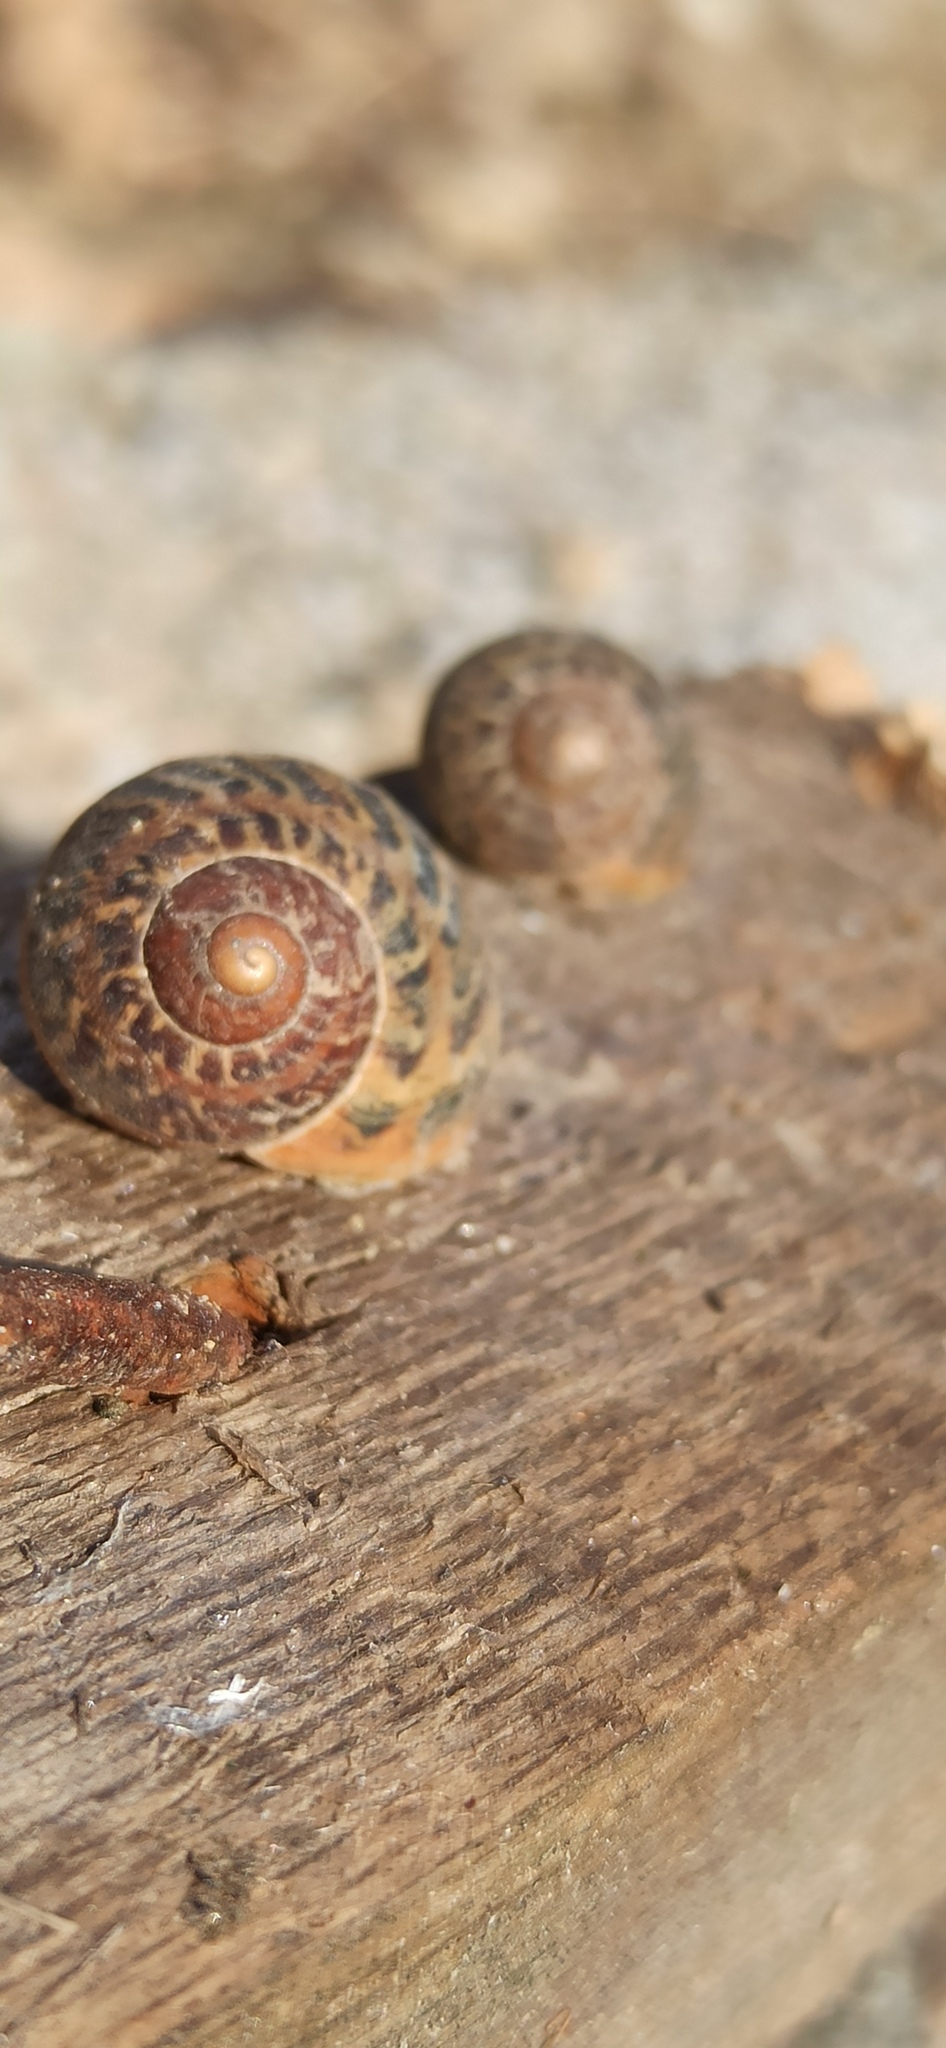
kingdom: Animalia
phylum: Mollusca
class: Gastropoda
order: Stylommatophora
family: Helicidae
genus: Cornu
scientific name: Cornu aspersum
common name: Brown garden snail
